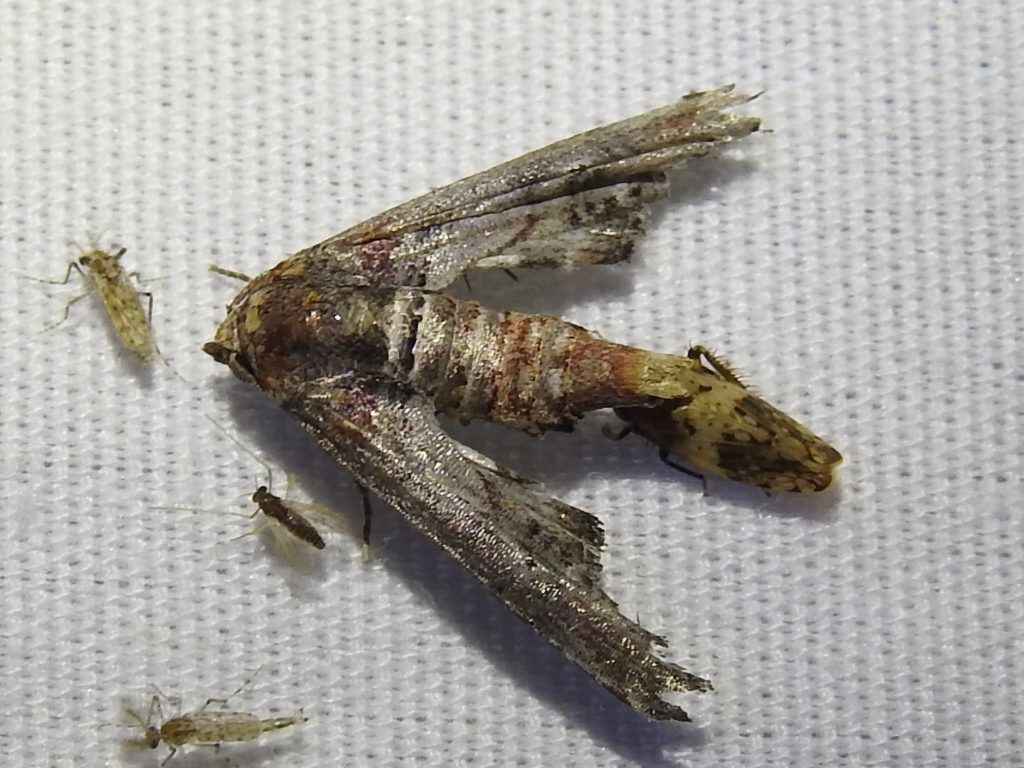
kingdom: Animalia
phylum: Arthropoda
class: Insecta
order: Lepidoptera
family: Euteliidae
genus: Marathyssa
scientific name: Marathyssa inficita
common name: Dark marathyssa moth
